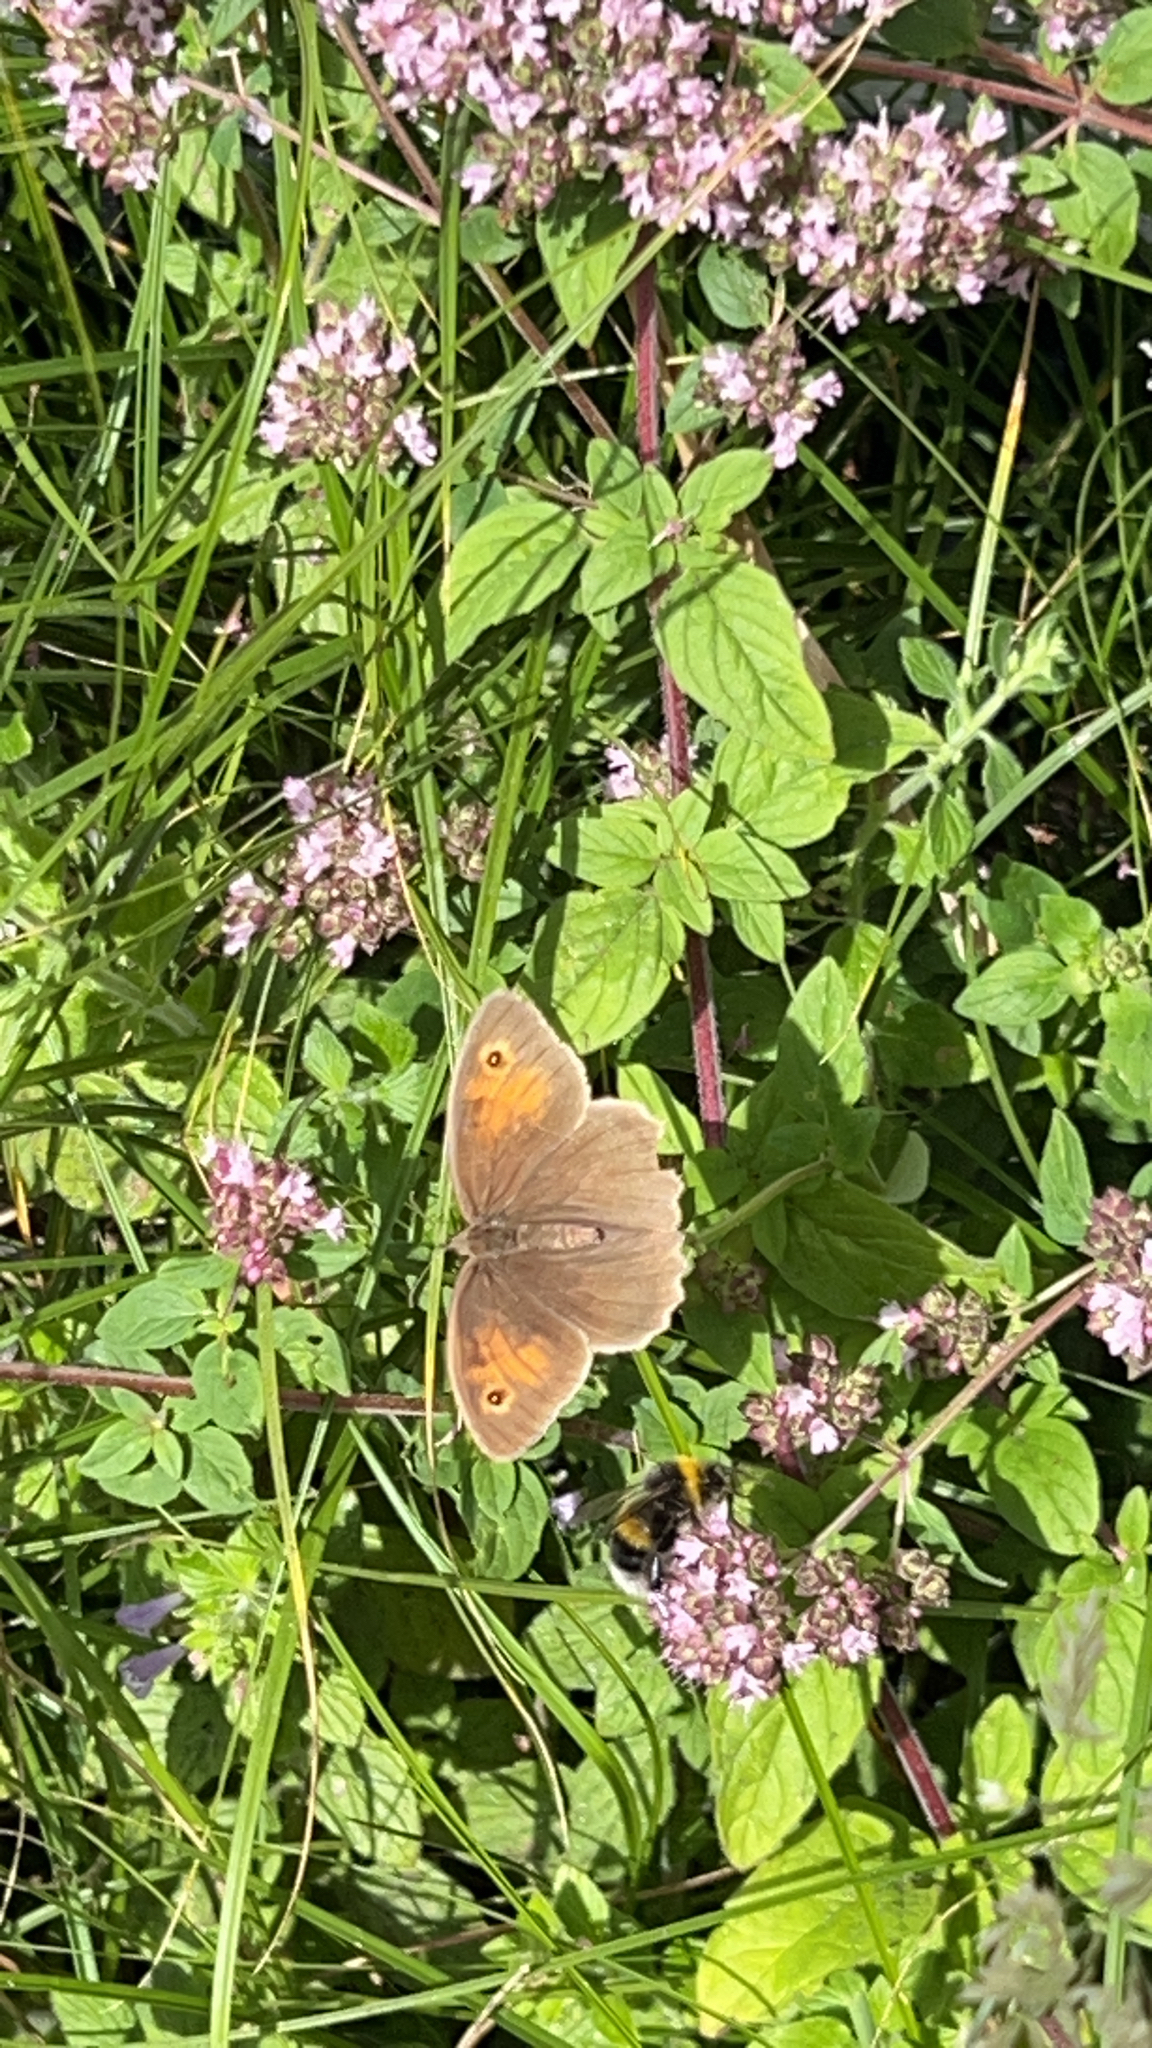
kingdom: Animalia
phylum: Arthropoda
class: Insecta
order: Lepidoptera
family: Nymphalidae
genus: Maniola
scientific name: Maniola jurtina
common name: Meadow brown
